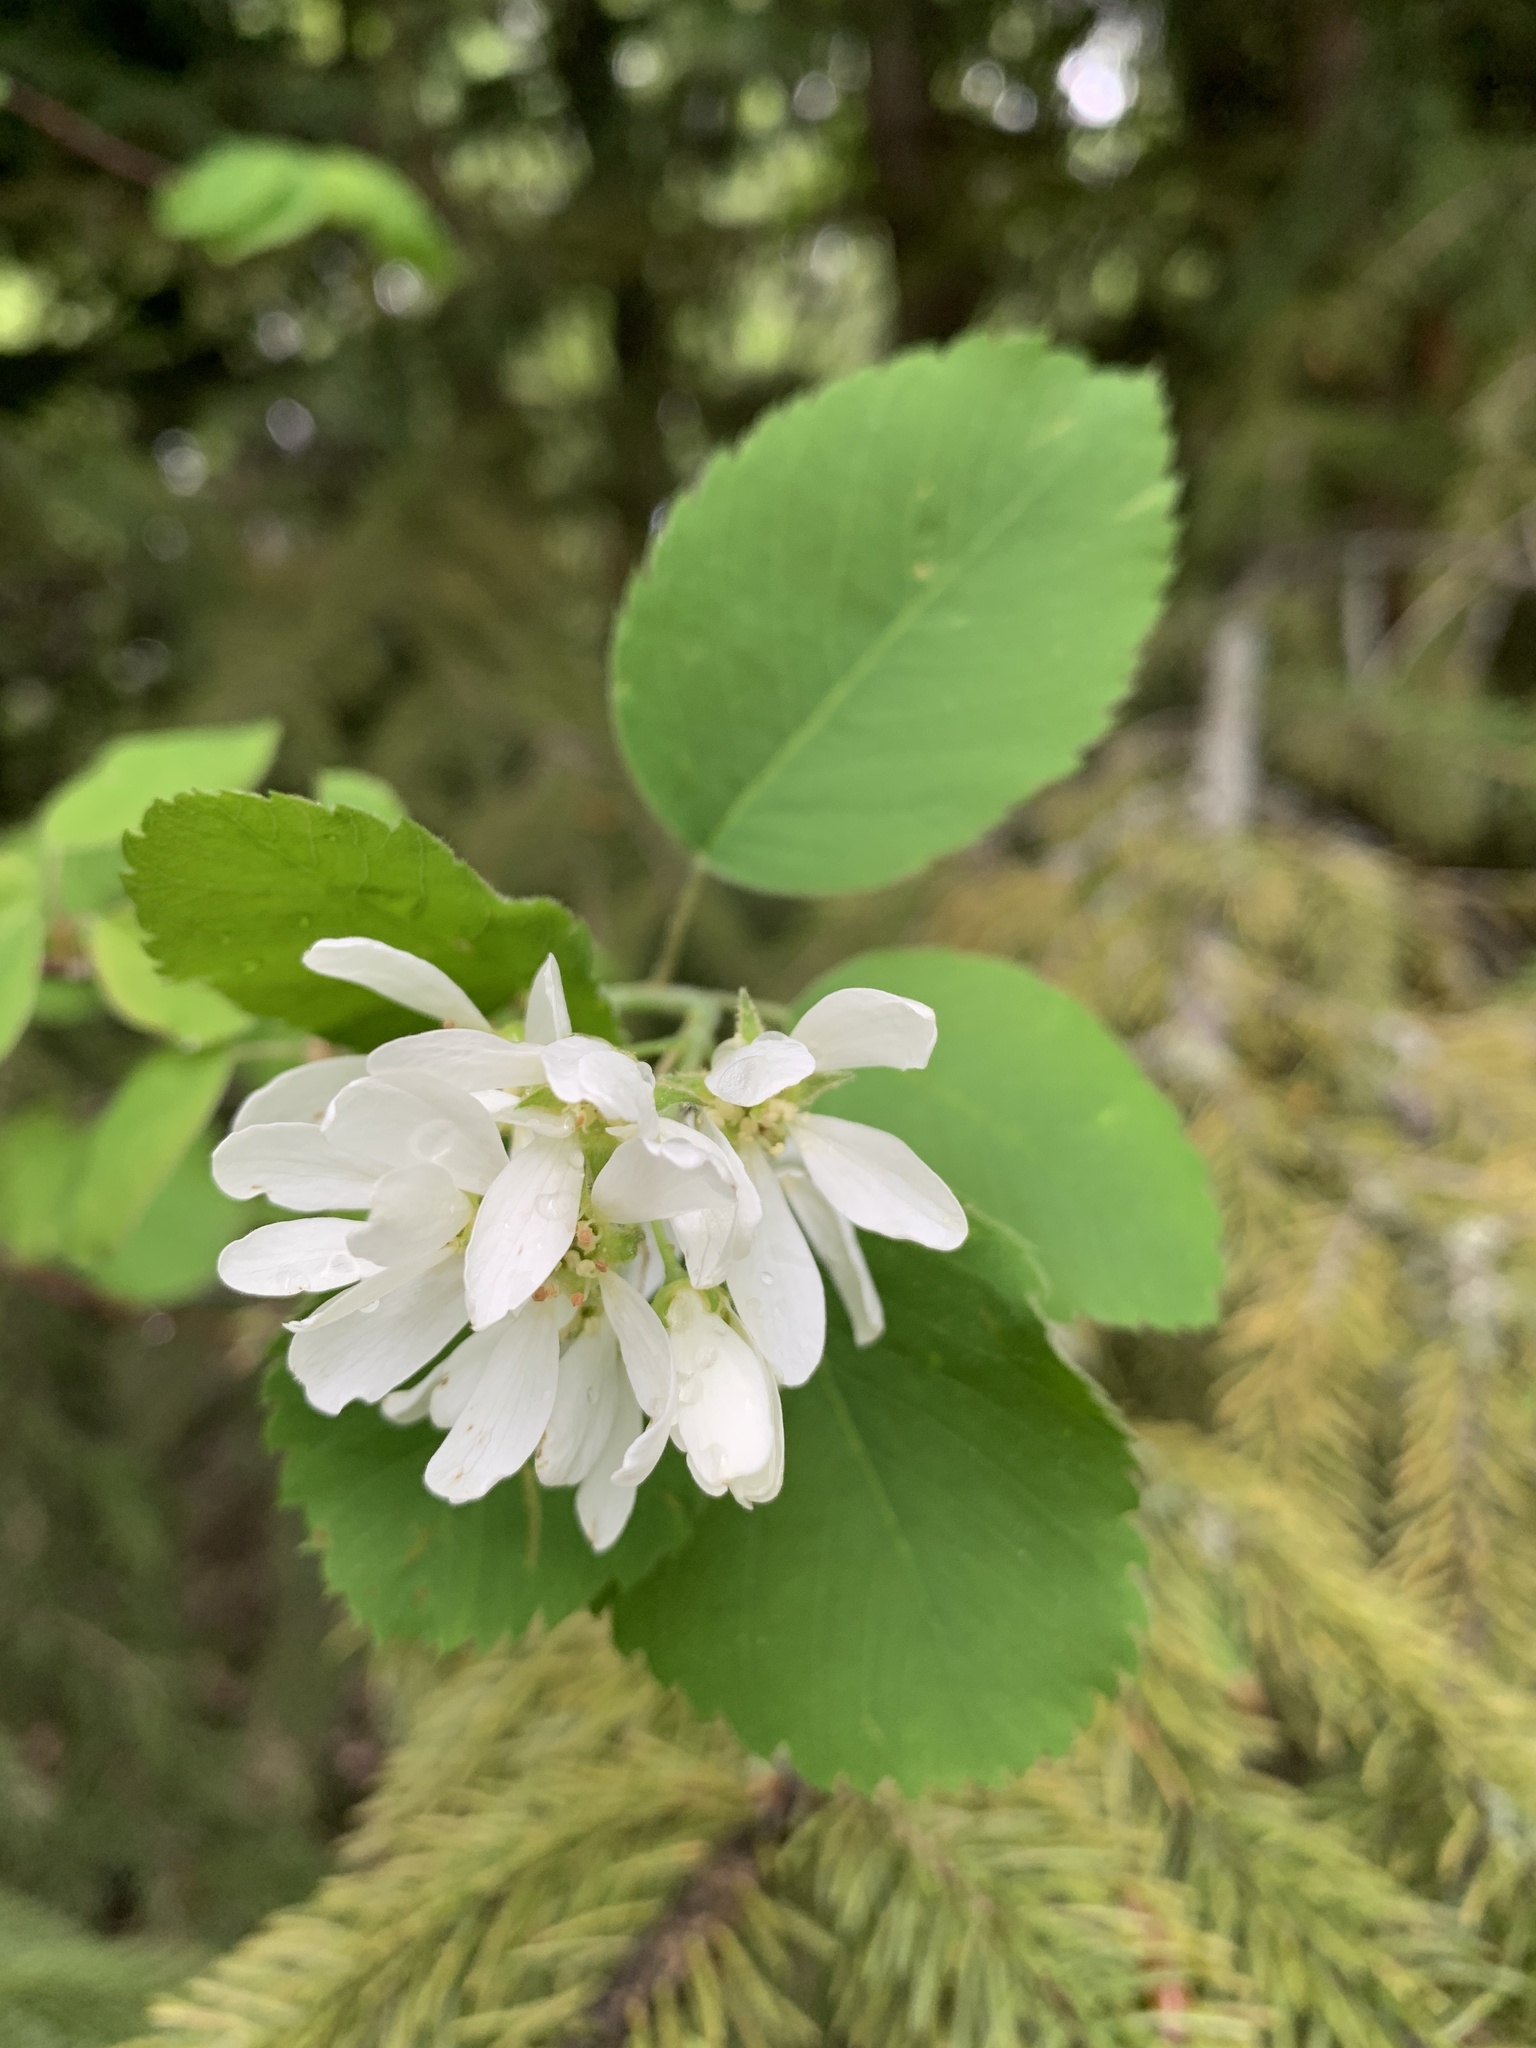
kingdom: Plantae
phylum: Tracheophyta
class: Magnoliopsida
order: Rosales
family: Rosaceae
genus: Amelanchier
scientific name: Amelanchier alnifolia
